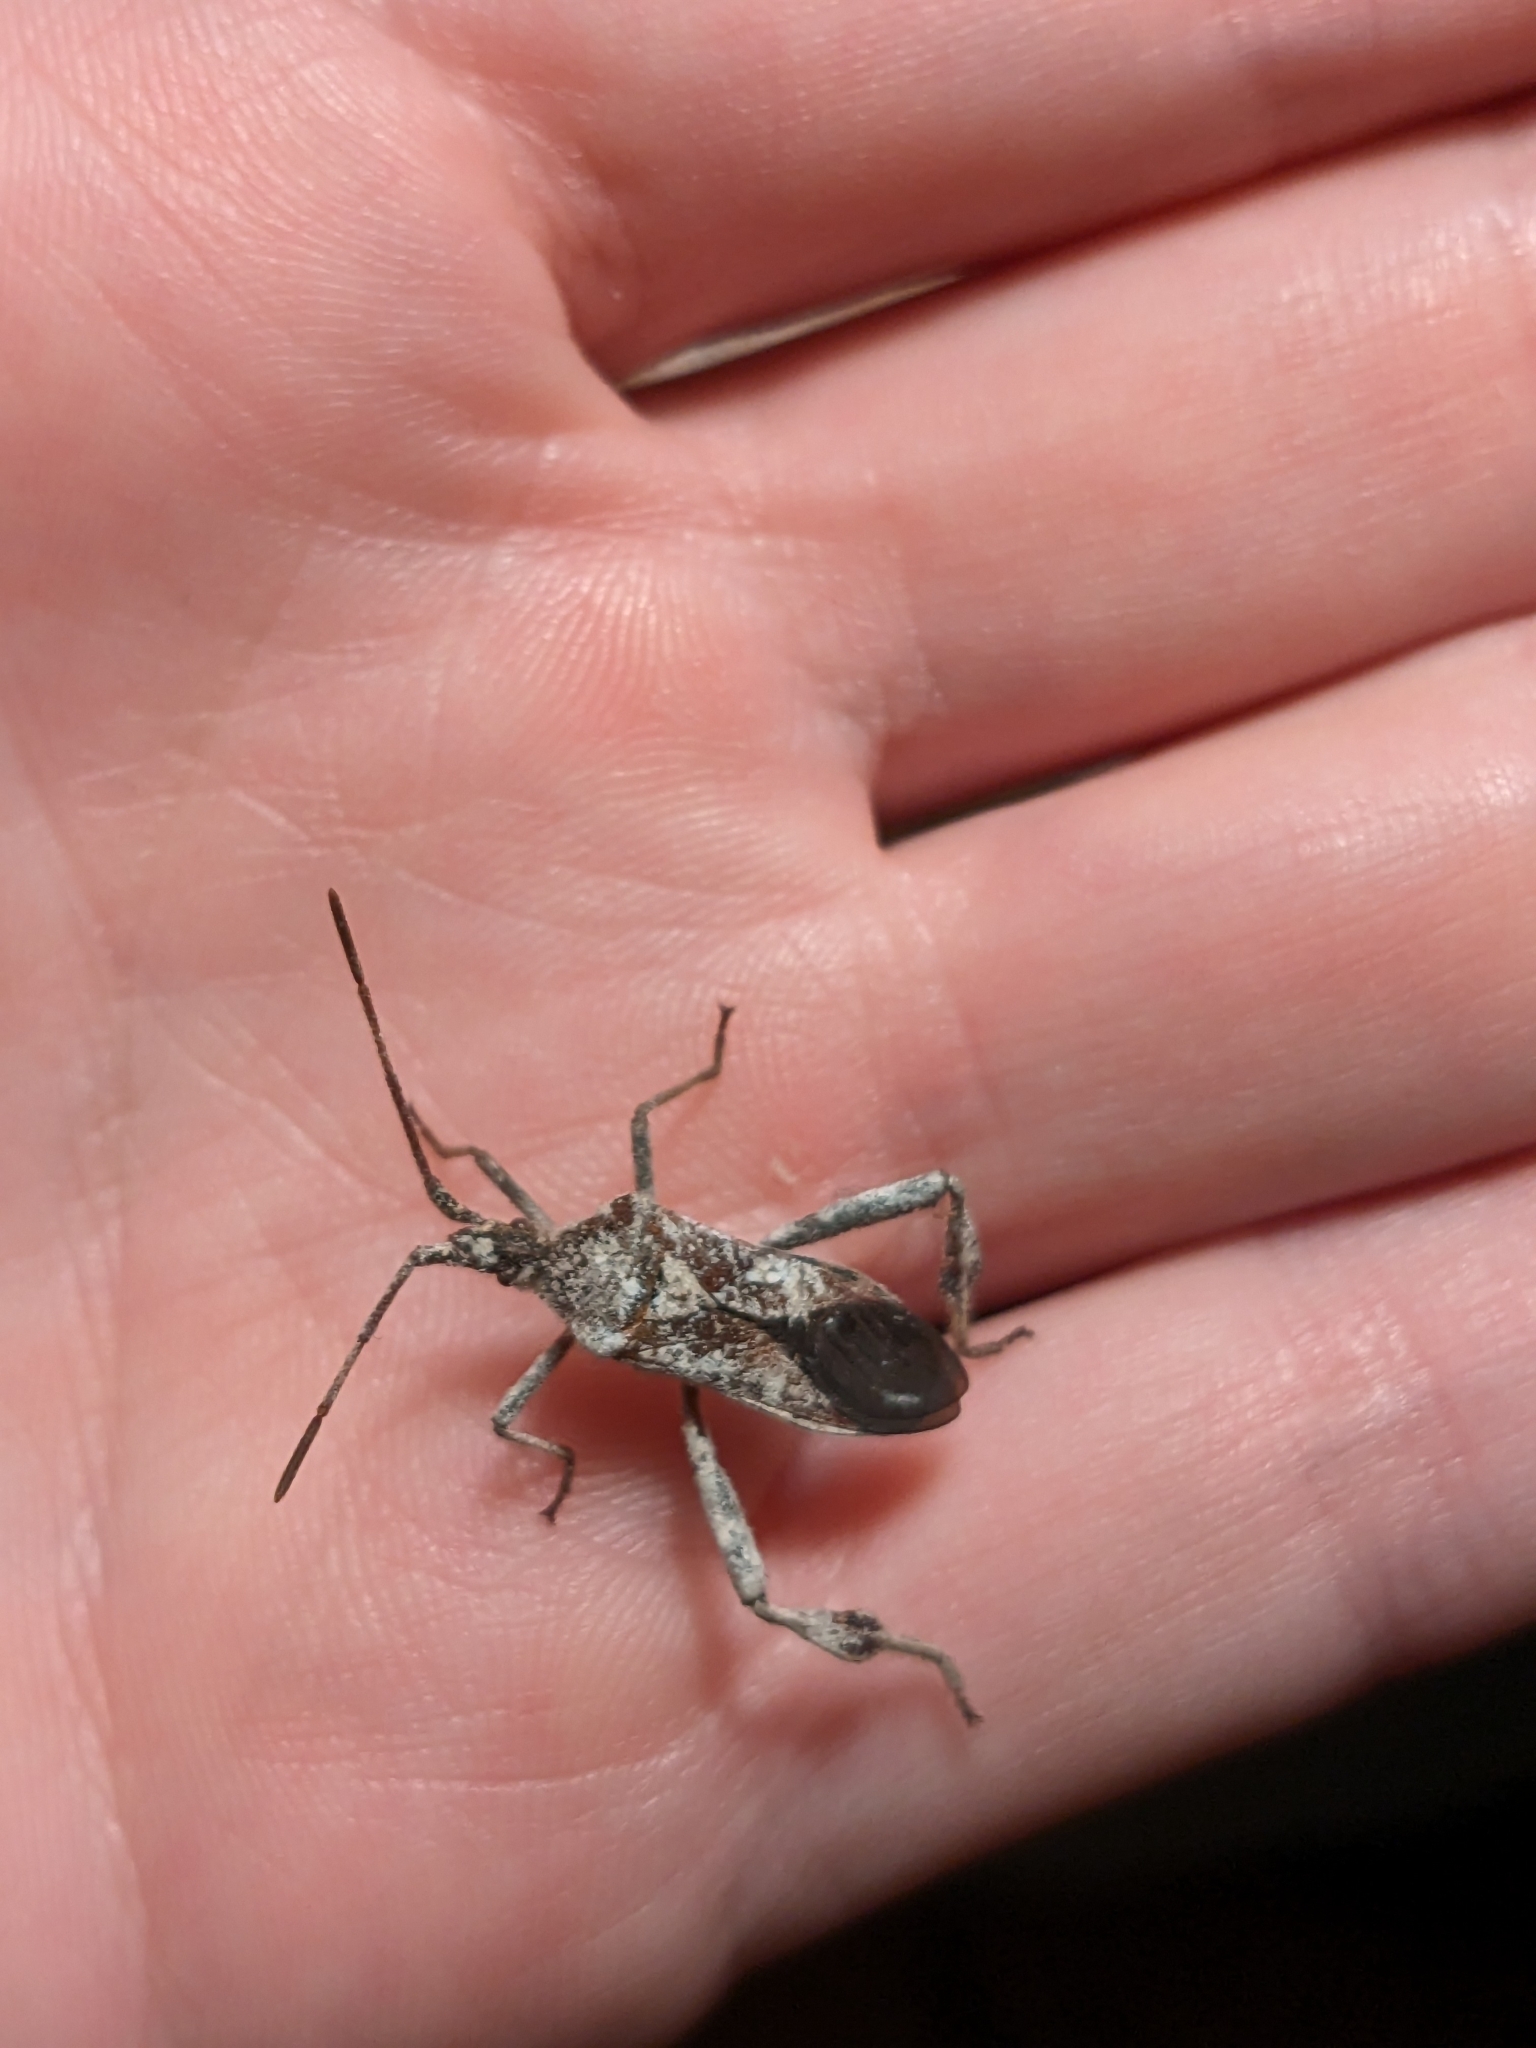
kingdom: Animalia
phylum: Arthropoda
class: Insecta
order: Hemiptera
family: Coreidae
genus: Leptoglossus
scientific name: Leptoglossus occidentalis
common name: Western conifer-seed bug
